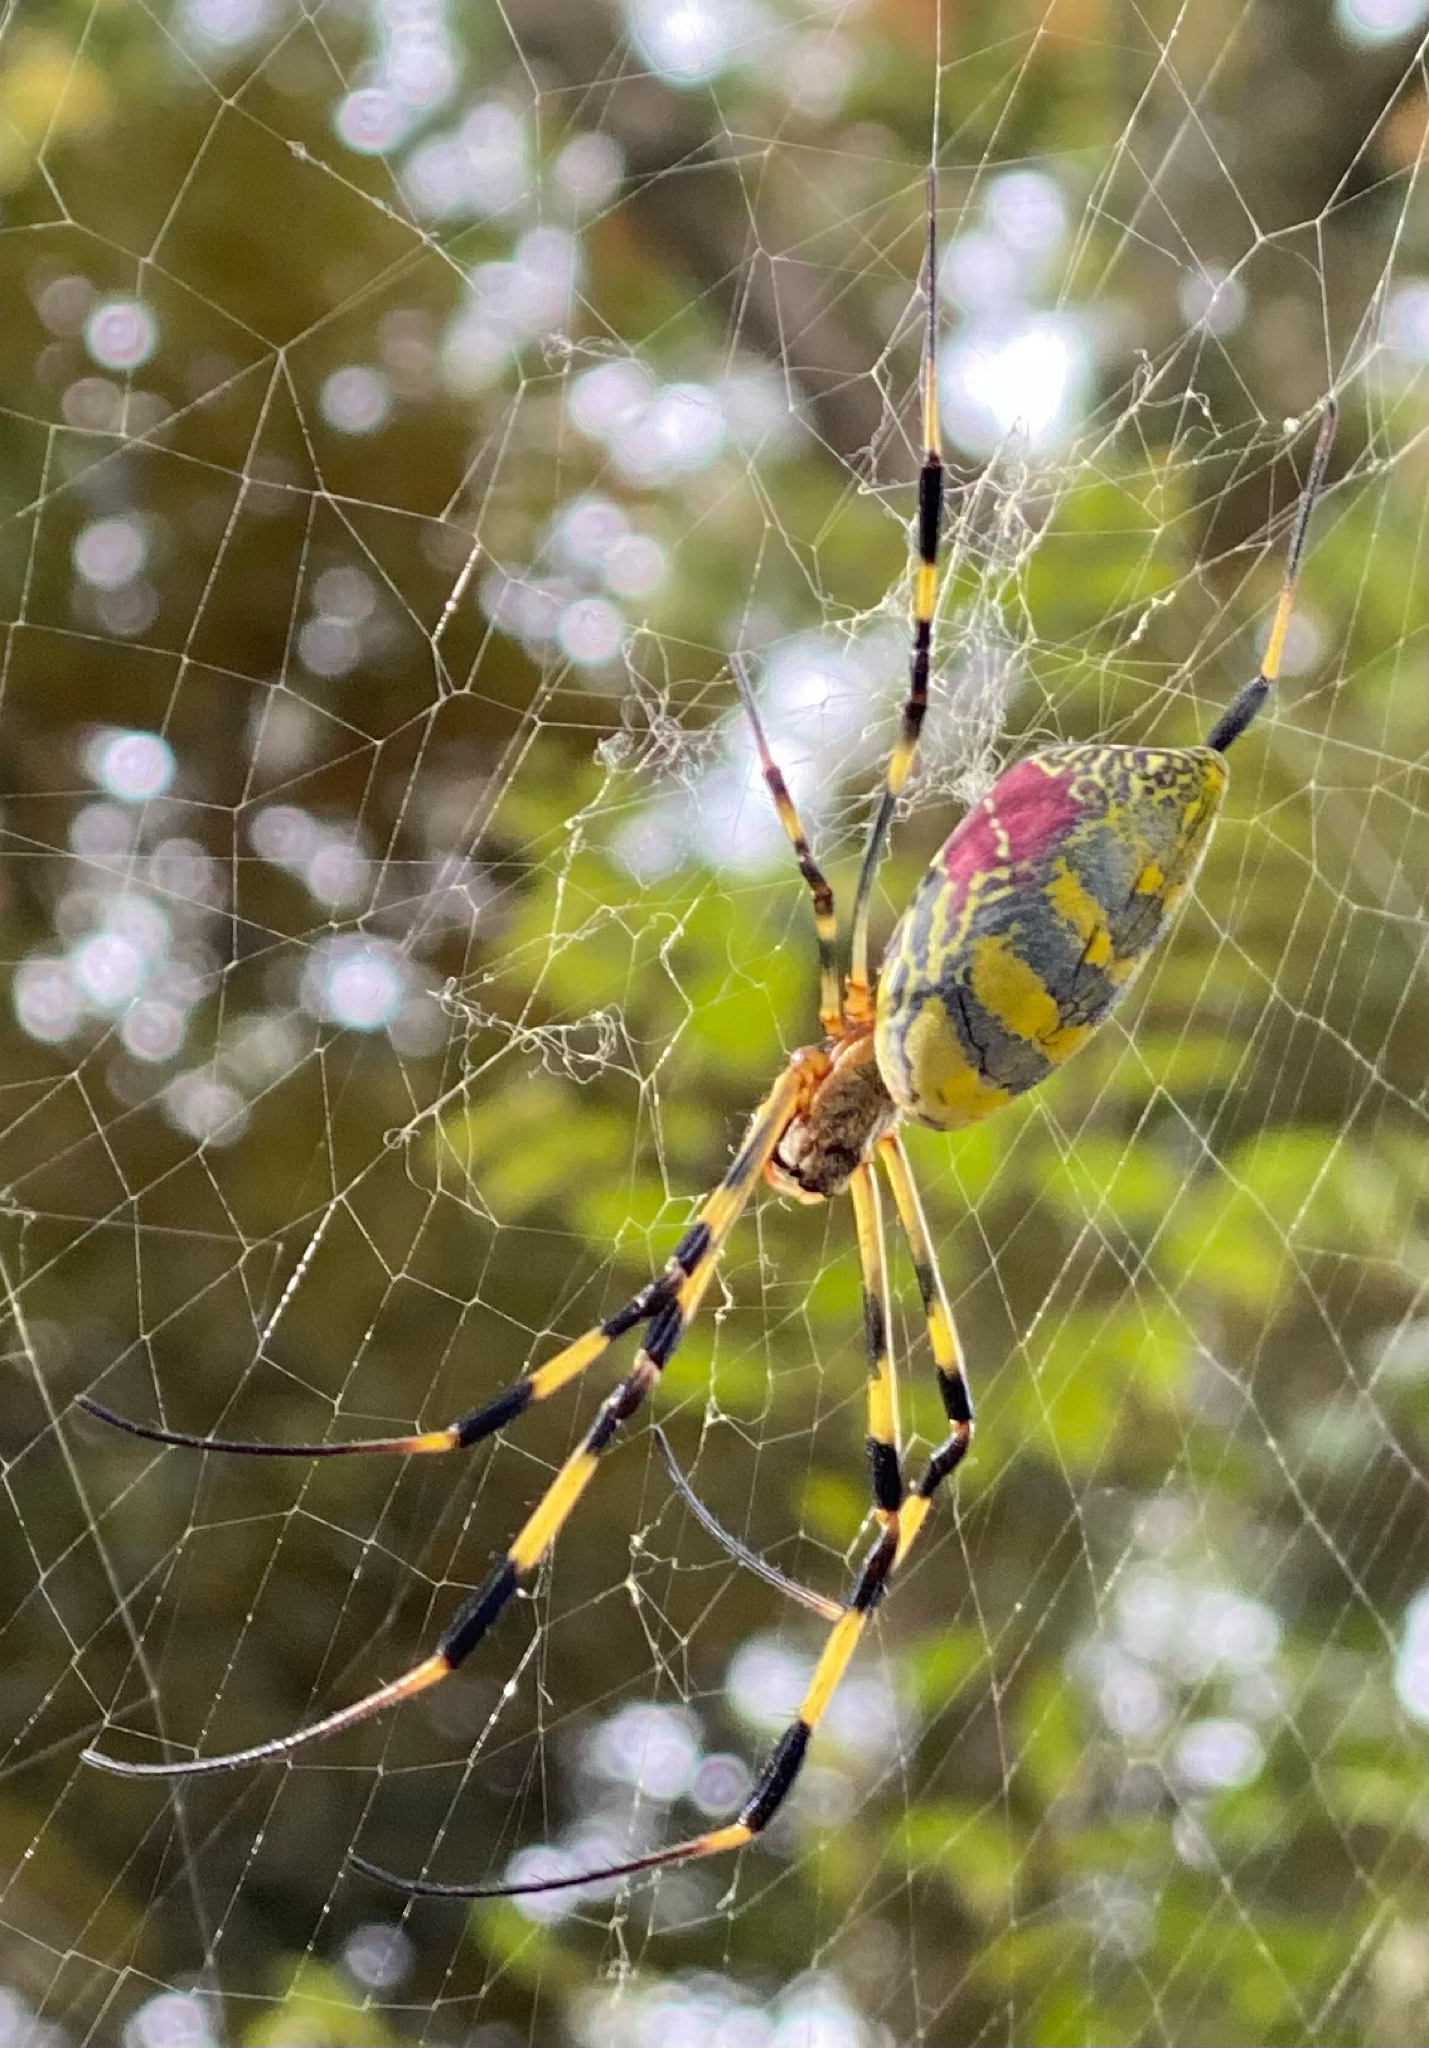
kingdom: Animalia
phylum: Arthropoda
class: Arachnida
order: Araneae
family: Araneidae
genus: Trichonephila
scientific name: Trichonephila clavata
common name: Jorō spider
